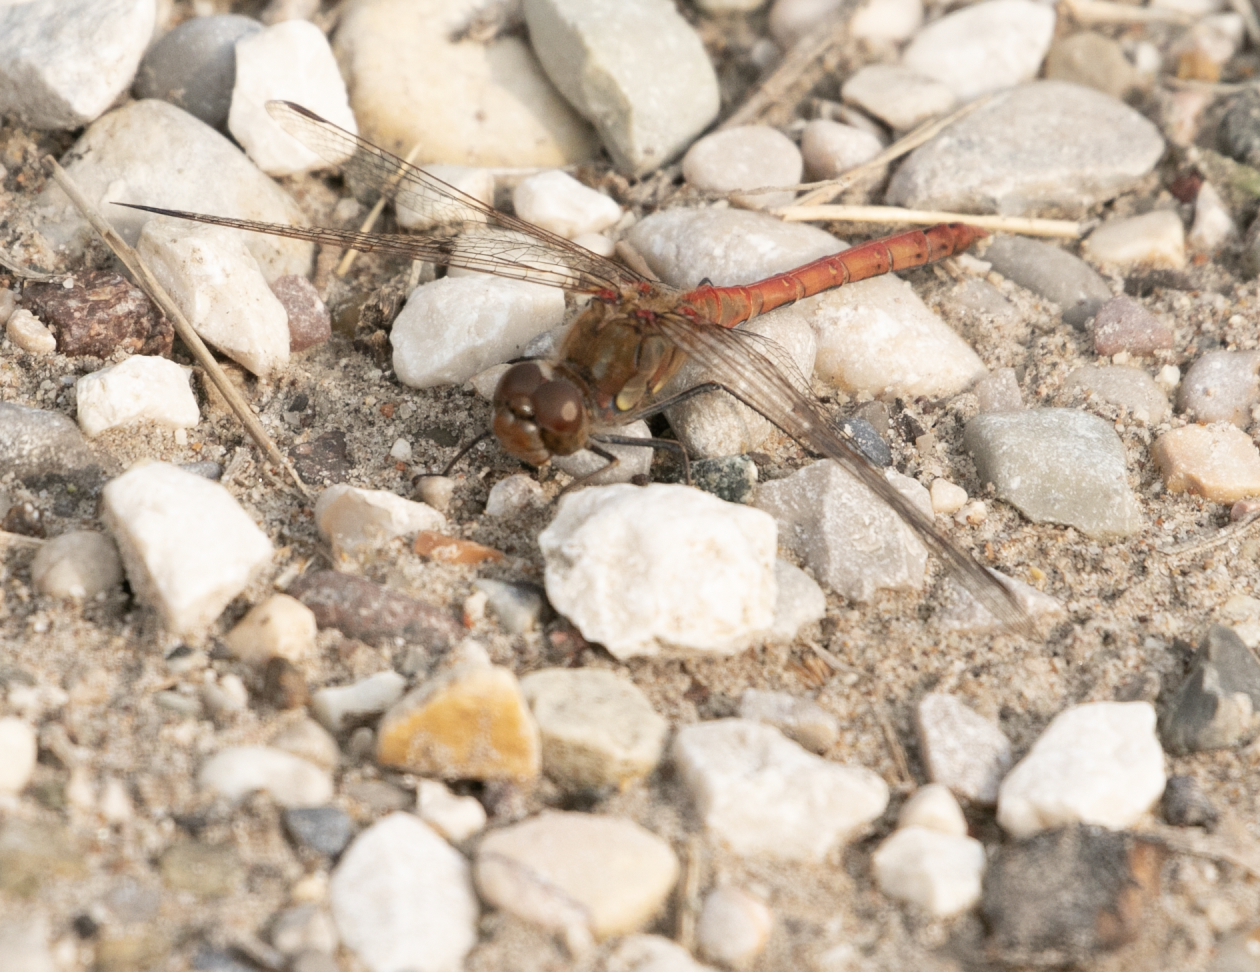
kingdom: Animalia
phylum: Arthropoda
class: Insecta
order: Odonata
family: Libellulidae
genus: Sympetrum
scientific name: Sympetrum striolatum
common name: Common darter
